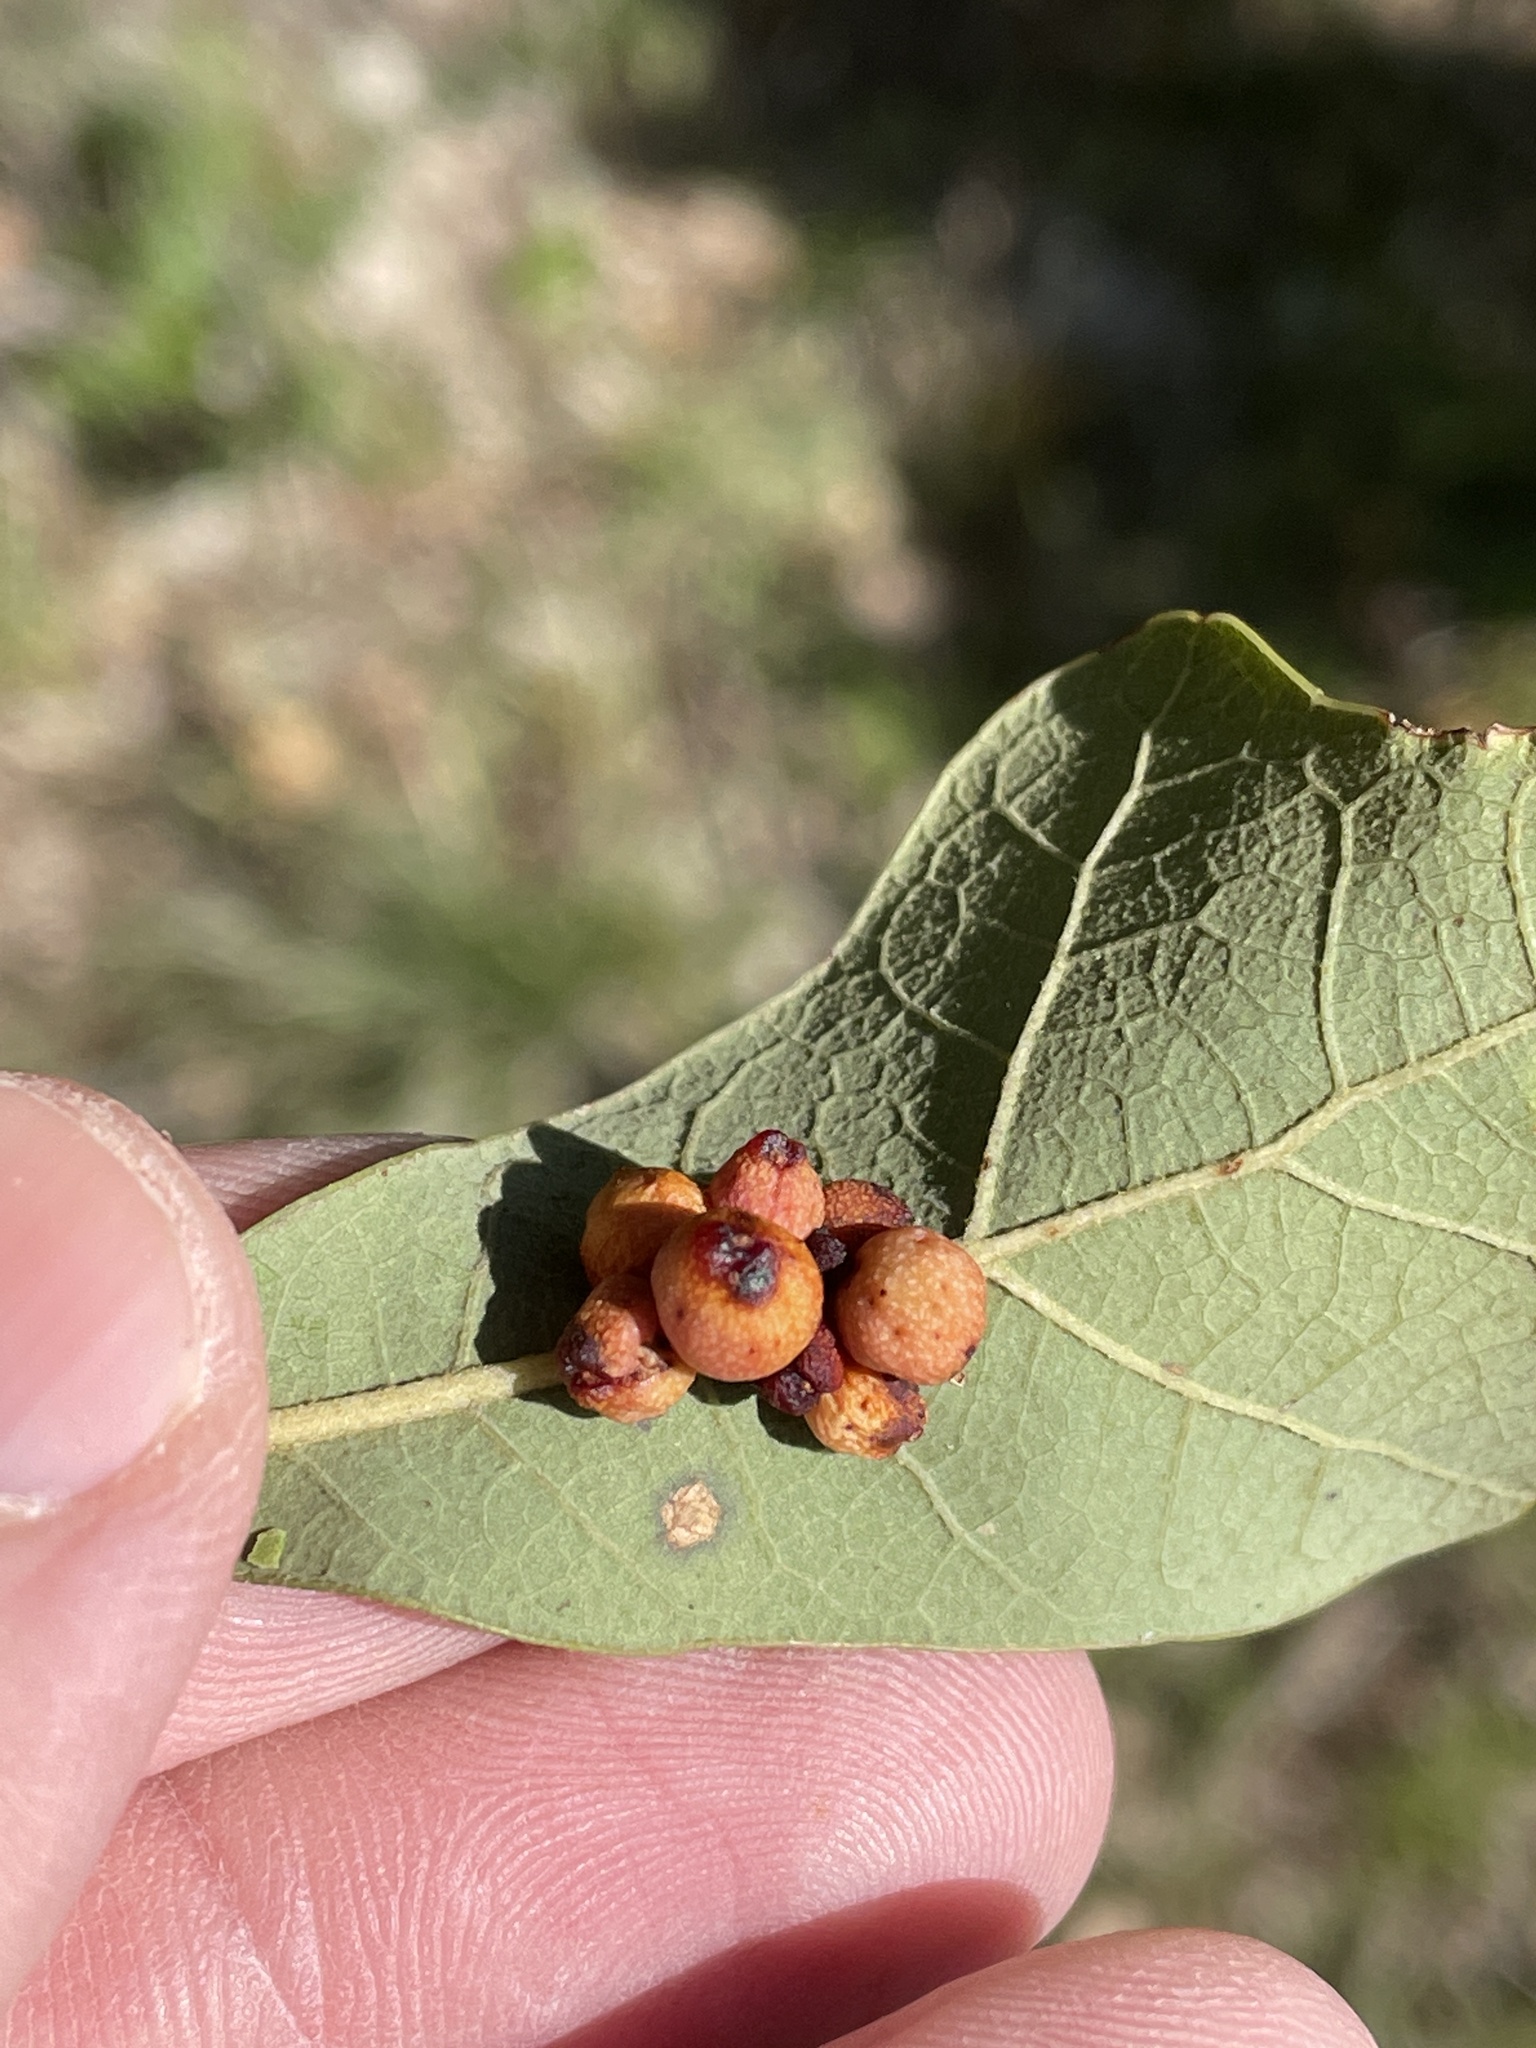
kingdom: Animalia
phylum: Arthropoda
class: Insecta
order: Hymenoptera
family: Cynipidae
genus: Andricus
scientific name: Andricus lustrans
